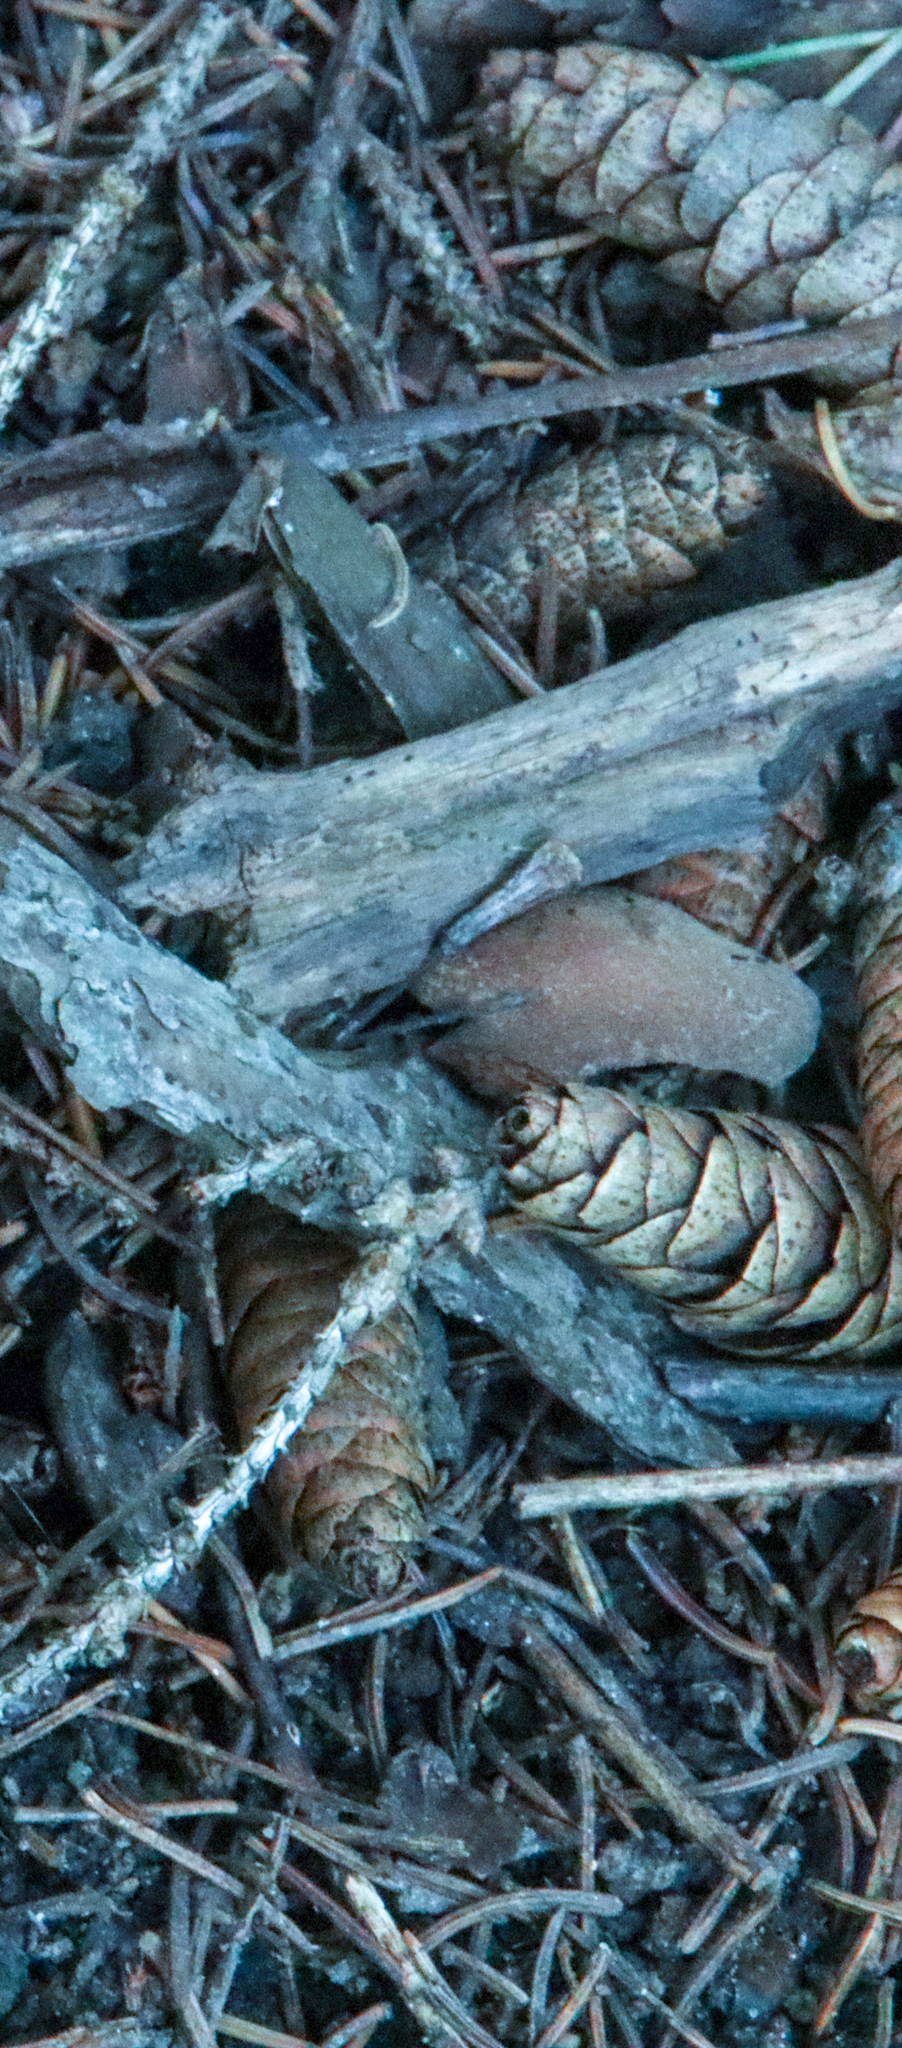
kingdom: Plantae
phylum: Tracheophyta
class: Pinopsida
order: Pinales
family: Pinaceae
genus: Picea
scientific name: Picea glauca
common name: White spruce
